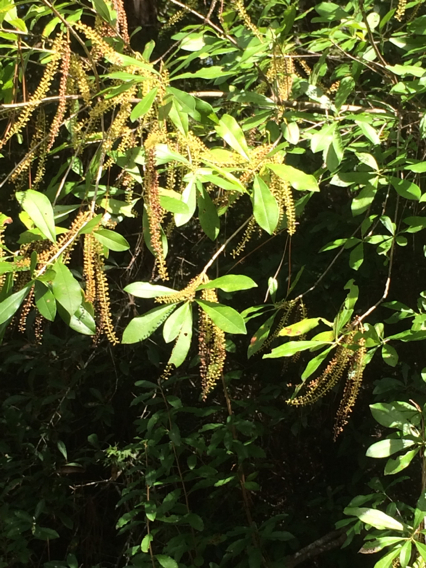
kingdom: Plantae
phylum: Tracheophyta
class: Magnoliopsida
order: Ericales
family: Cyrillaceae
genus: Cyrilla
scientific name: Cyrilla racemiflora
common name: Black titi
